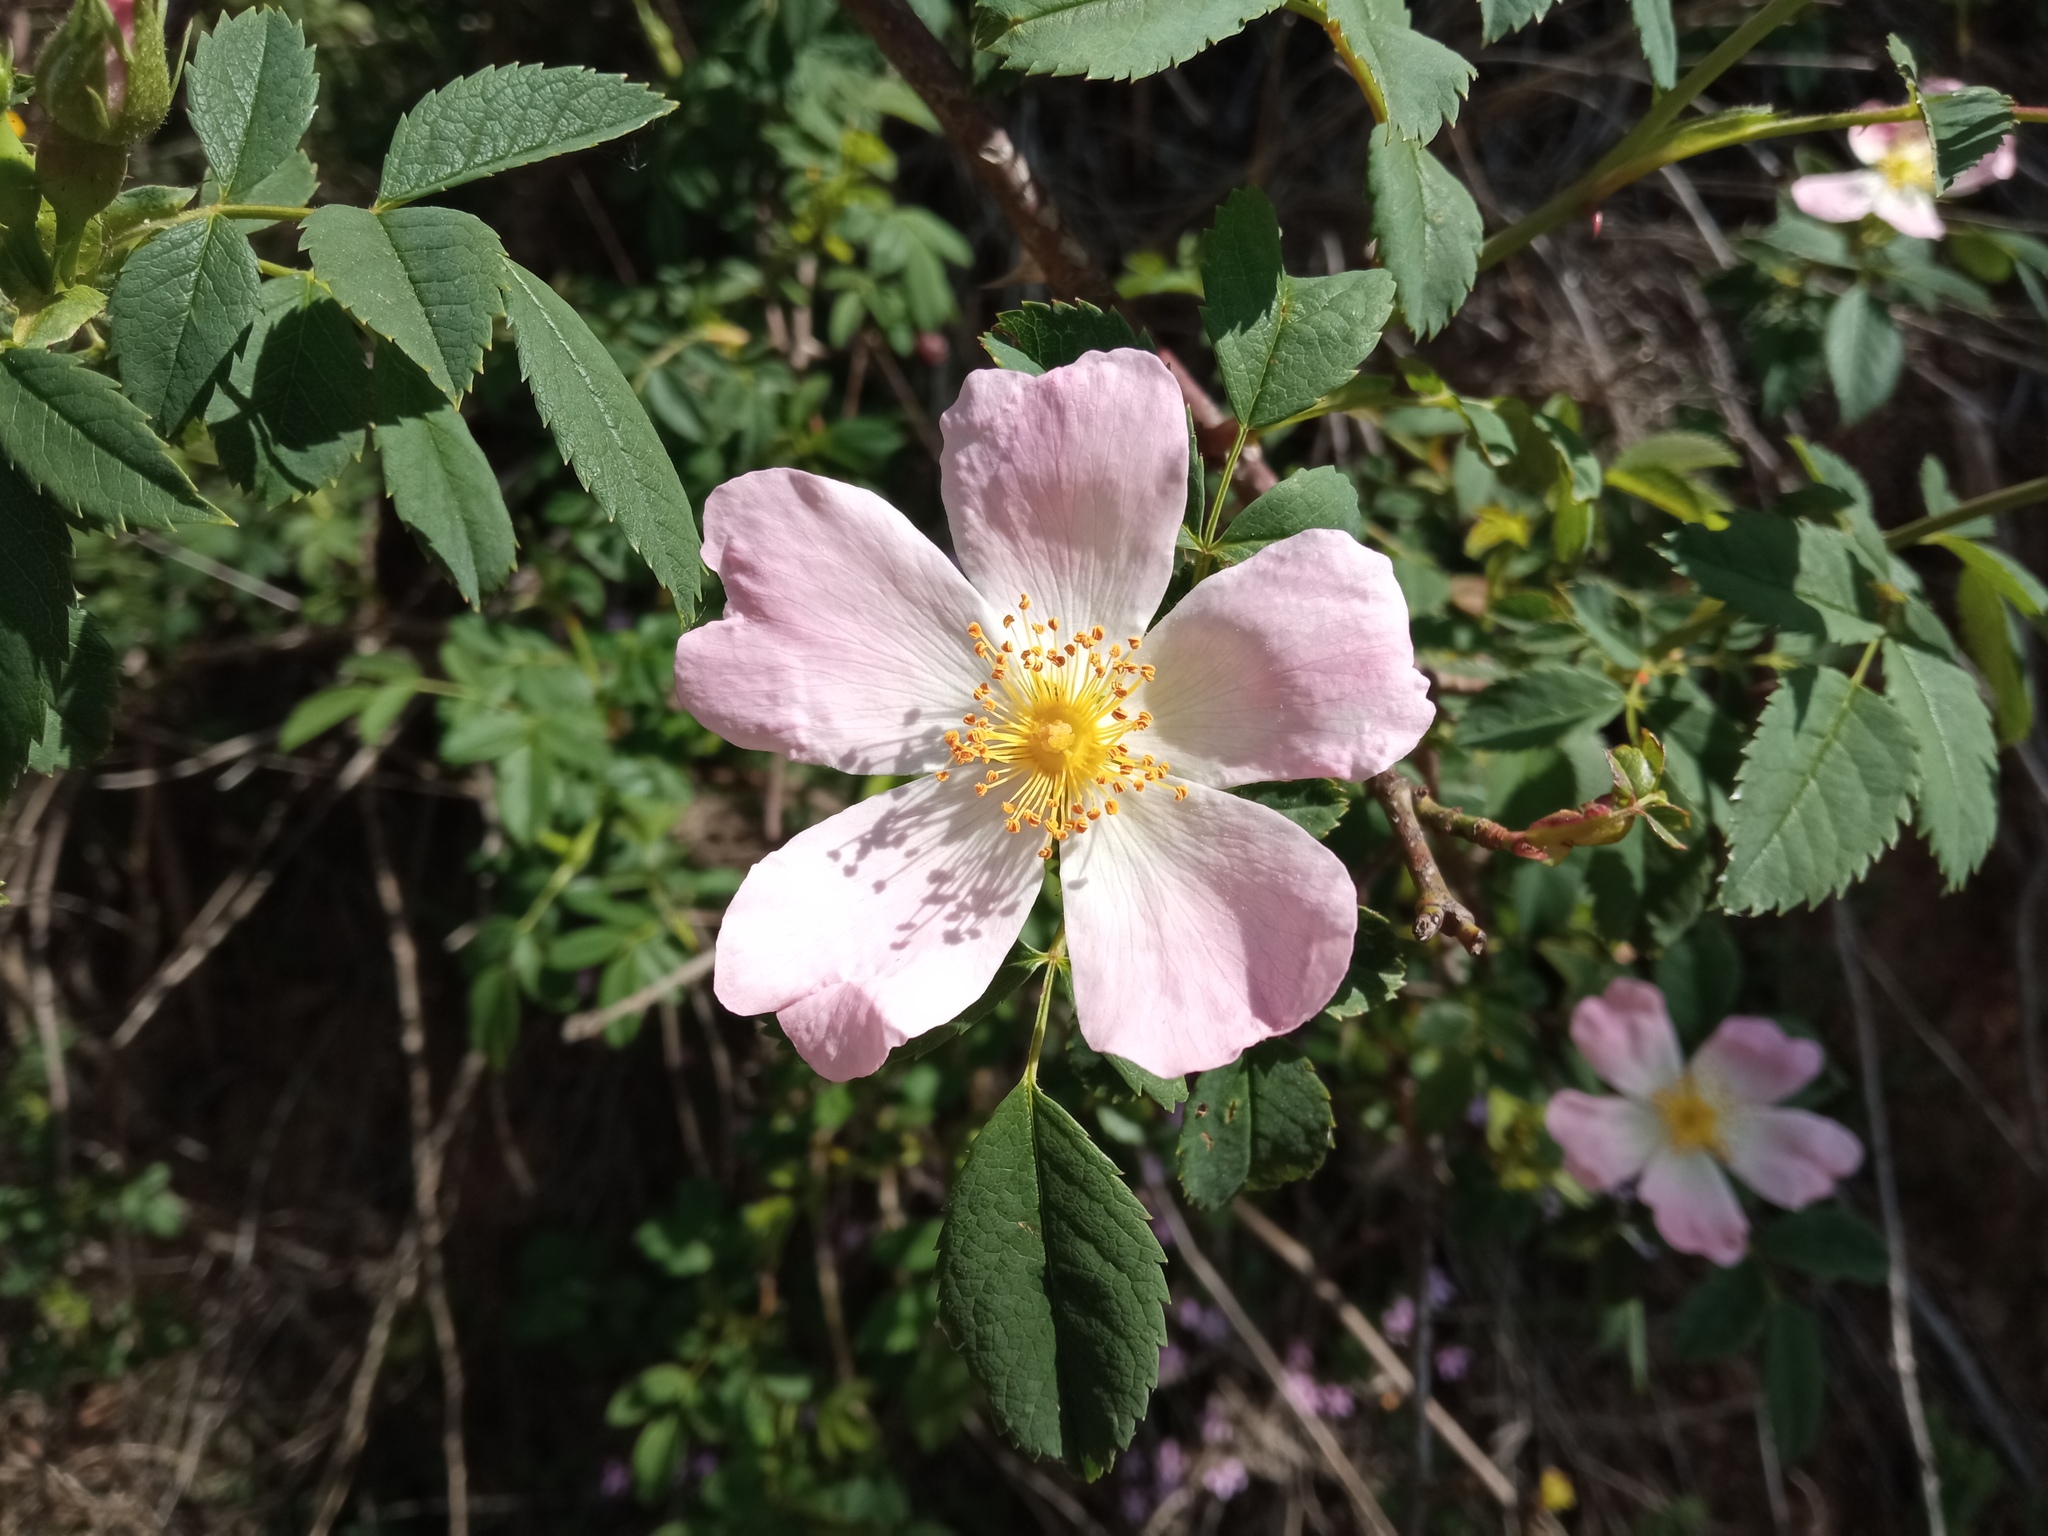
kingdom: Plantae
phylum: Tracheophyta
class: Magnoliopsida
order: Rosales
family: Rosaceae
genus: Rosa
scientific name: Rosa canina
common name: Dog rose
